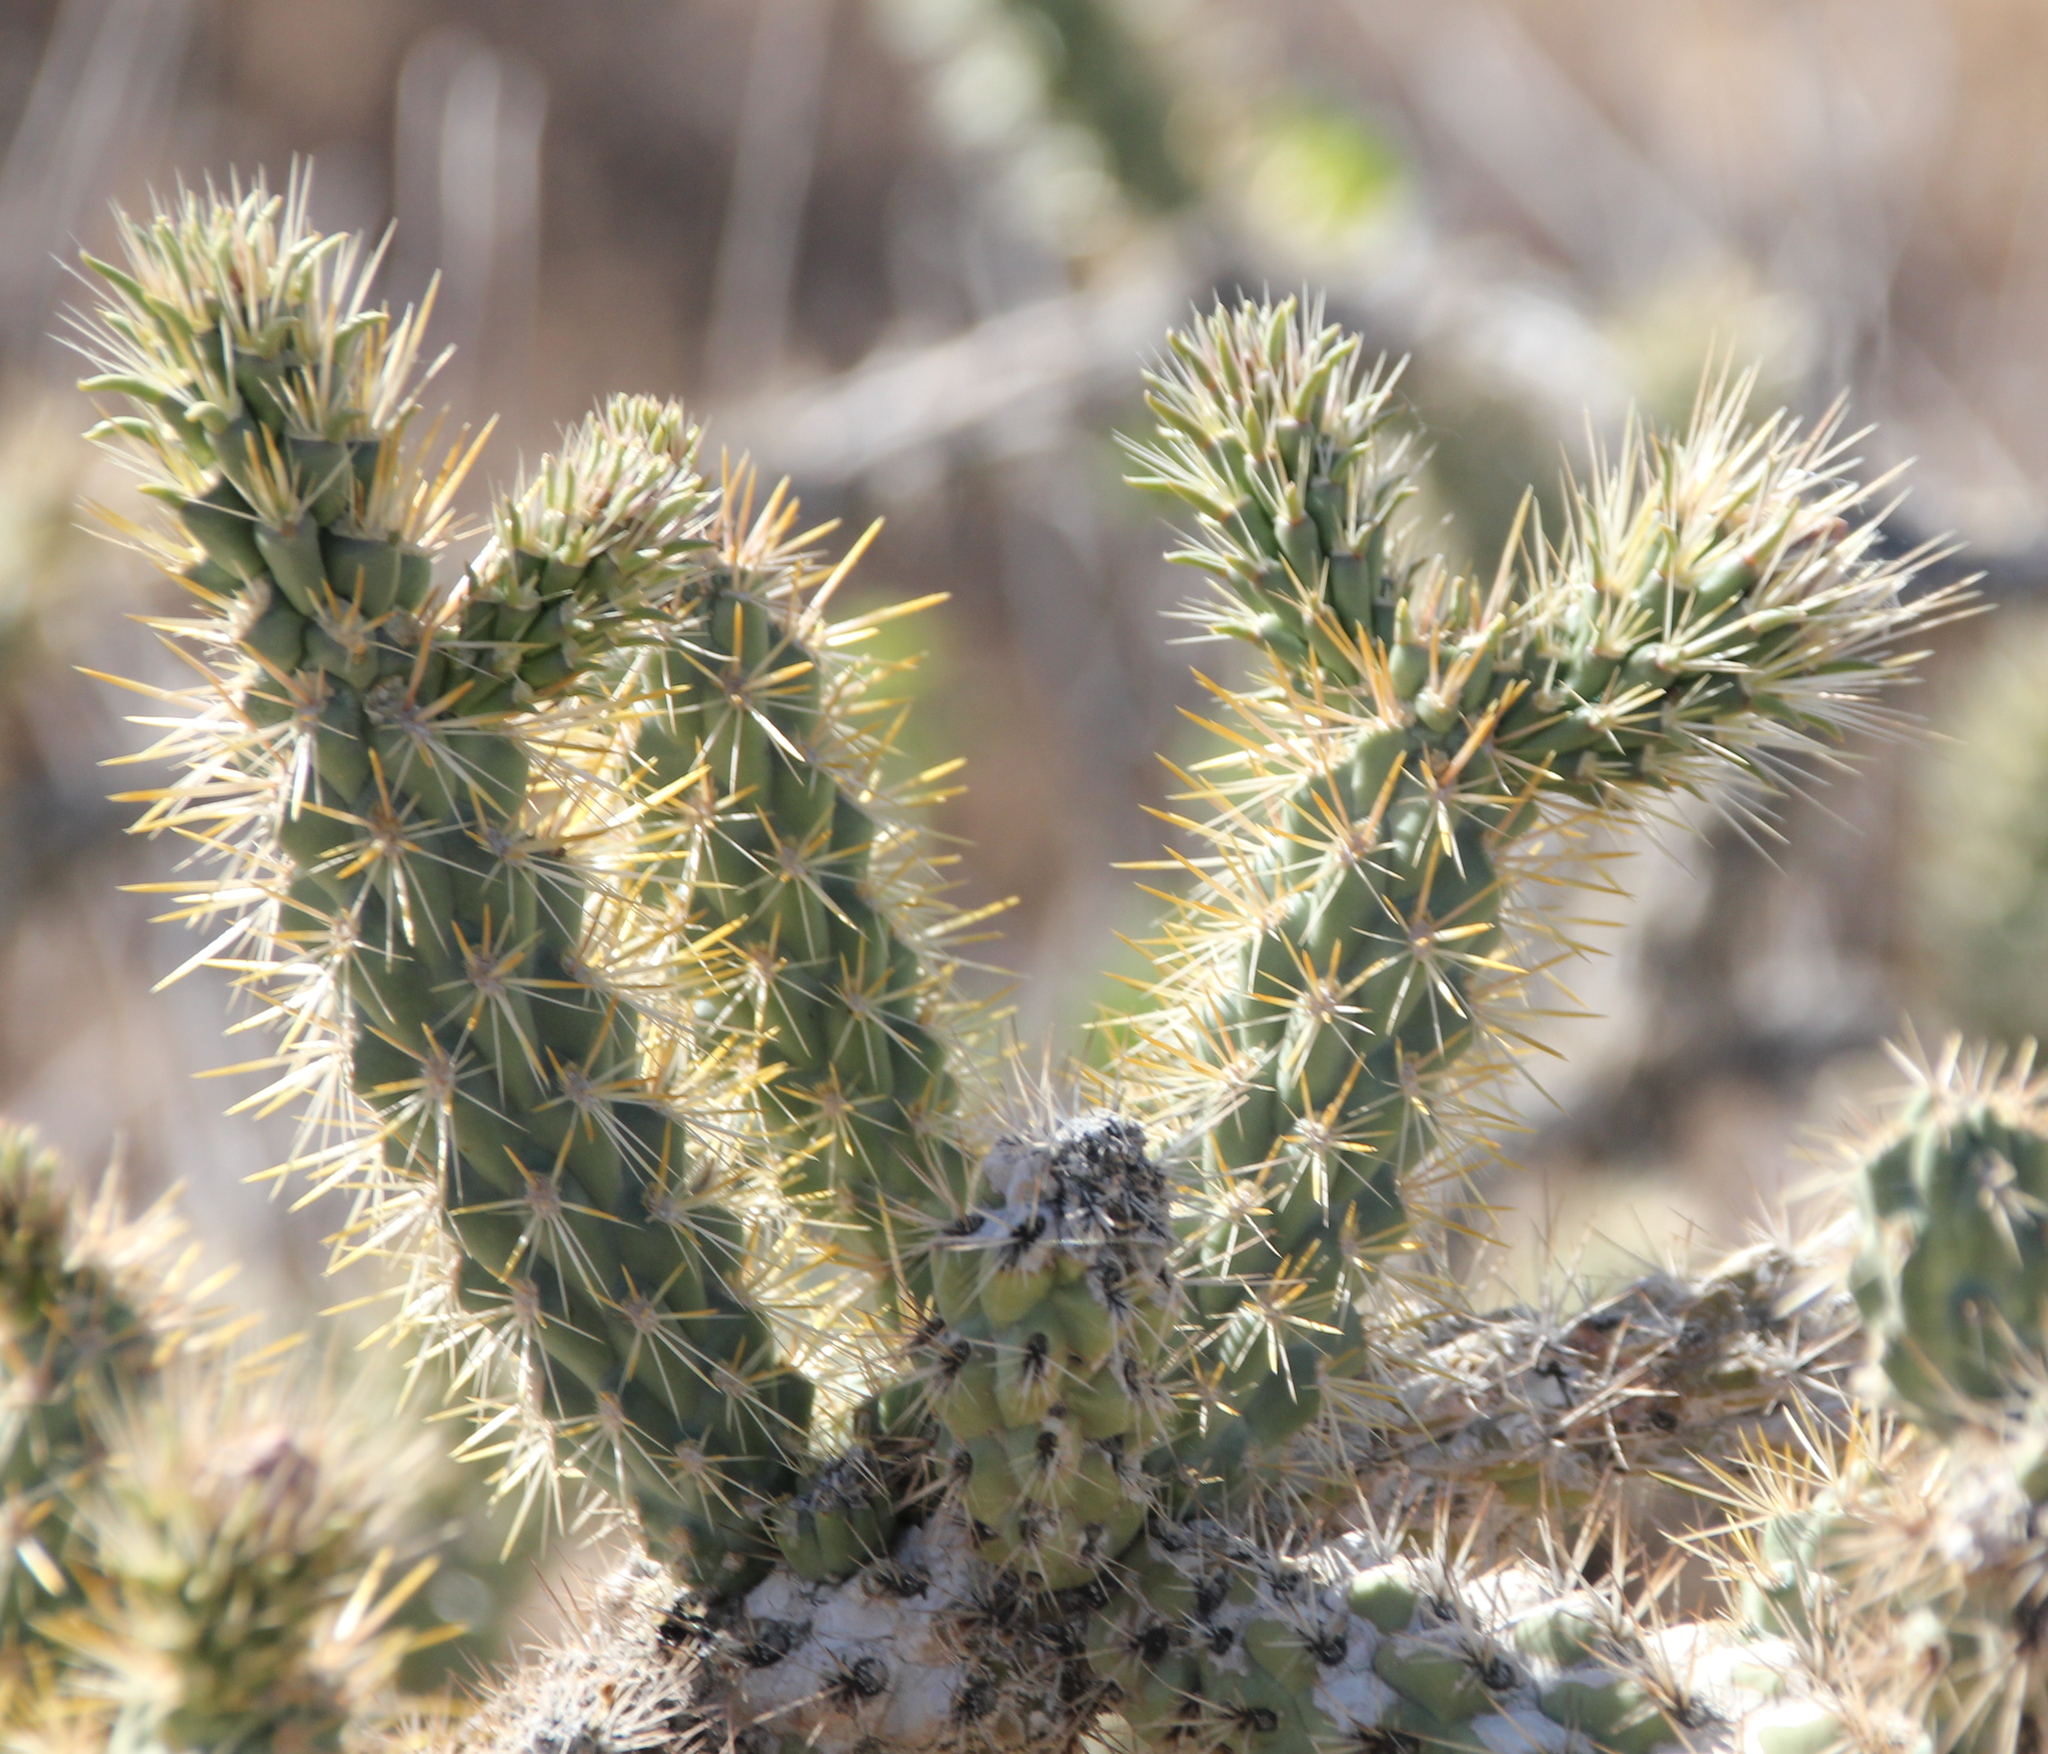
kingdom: Plantae
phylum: Tracheophyta
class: Magnoliopsida
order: Caryophyllales
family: Cactaceae
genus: Cylindropuntia
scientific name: Cylindropuntia echinocarpa
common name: Ground cholla
